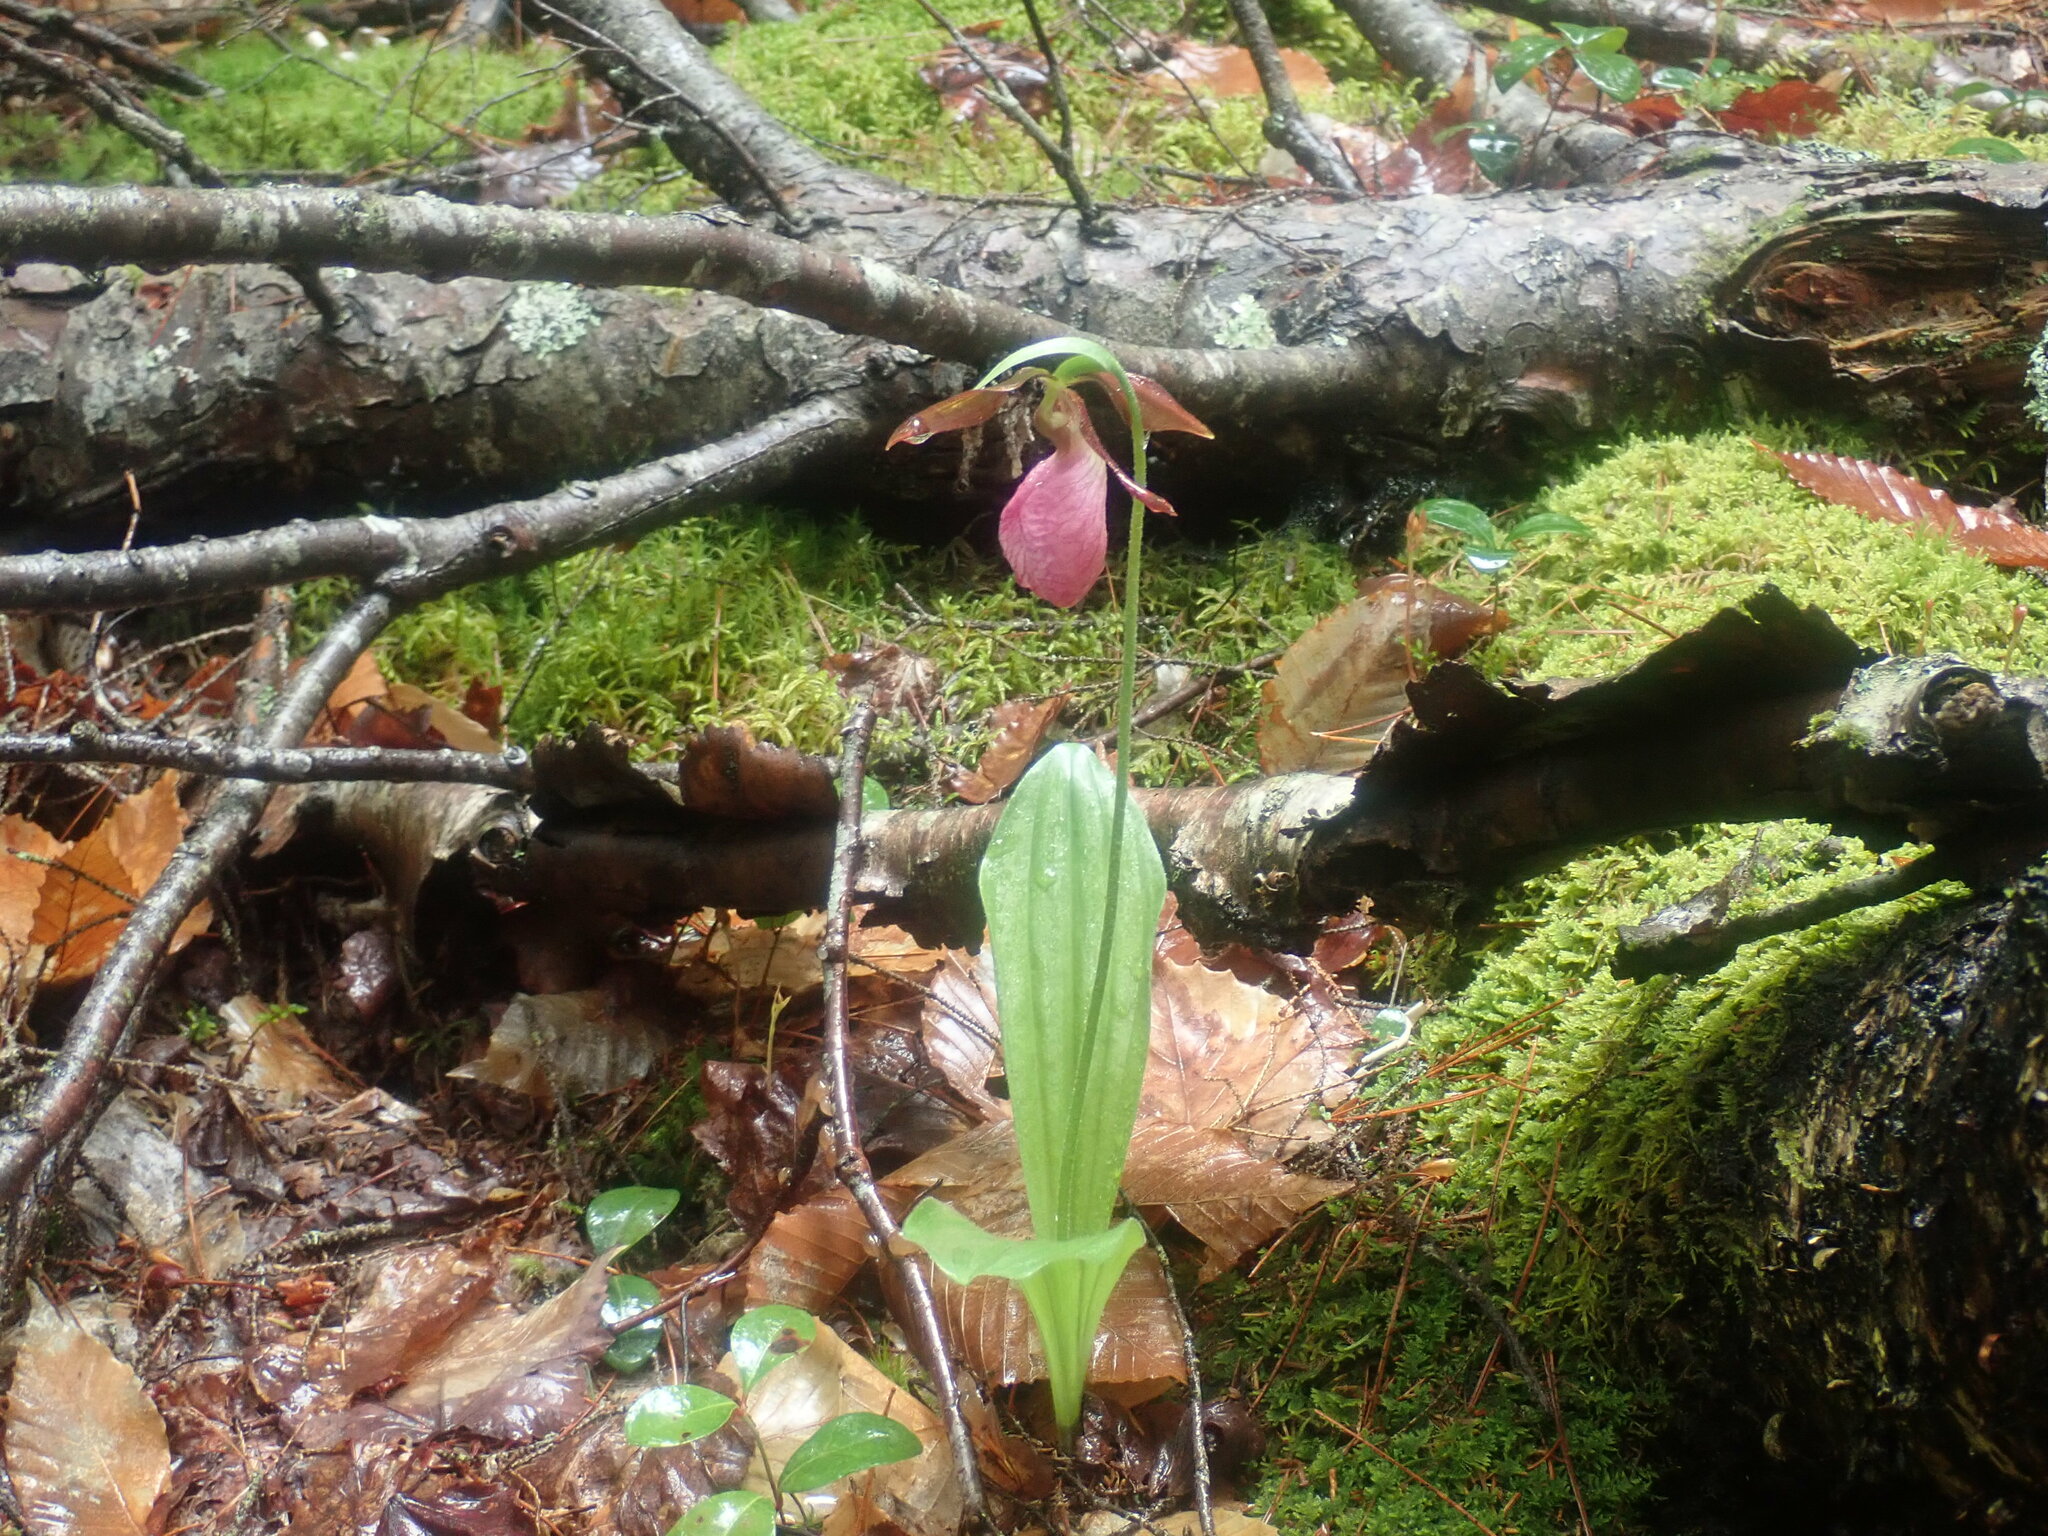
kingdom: Plantae
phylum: Tracheophyta
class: Liliopsida
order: Asparagales
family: Orchidaceae
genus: Cypripedium
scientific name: Cypripedium acaule
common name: Pink lady's-slipper
